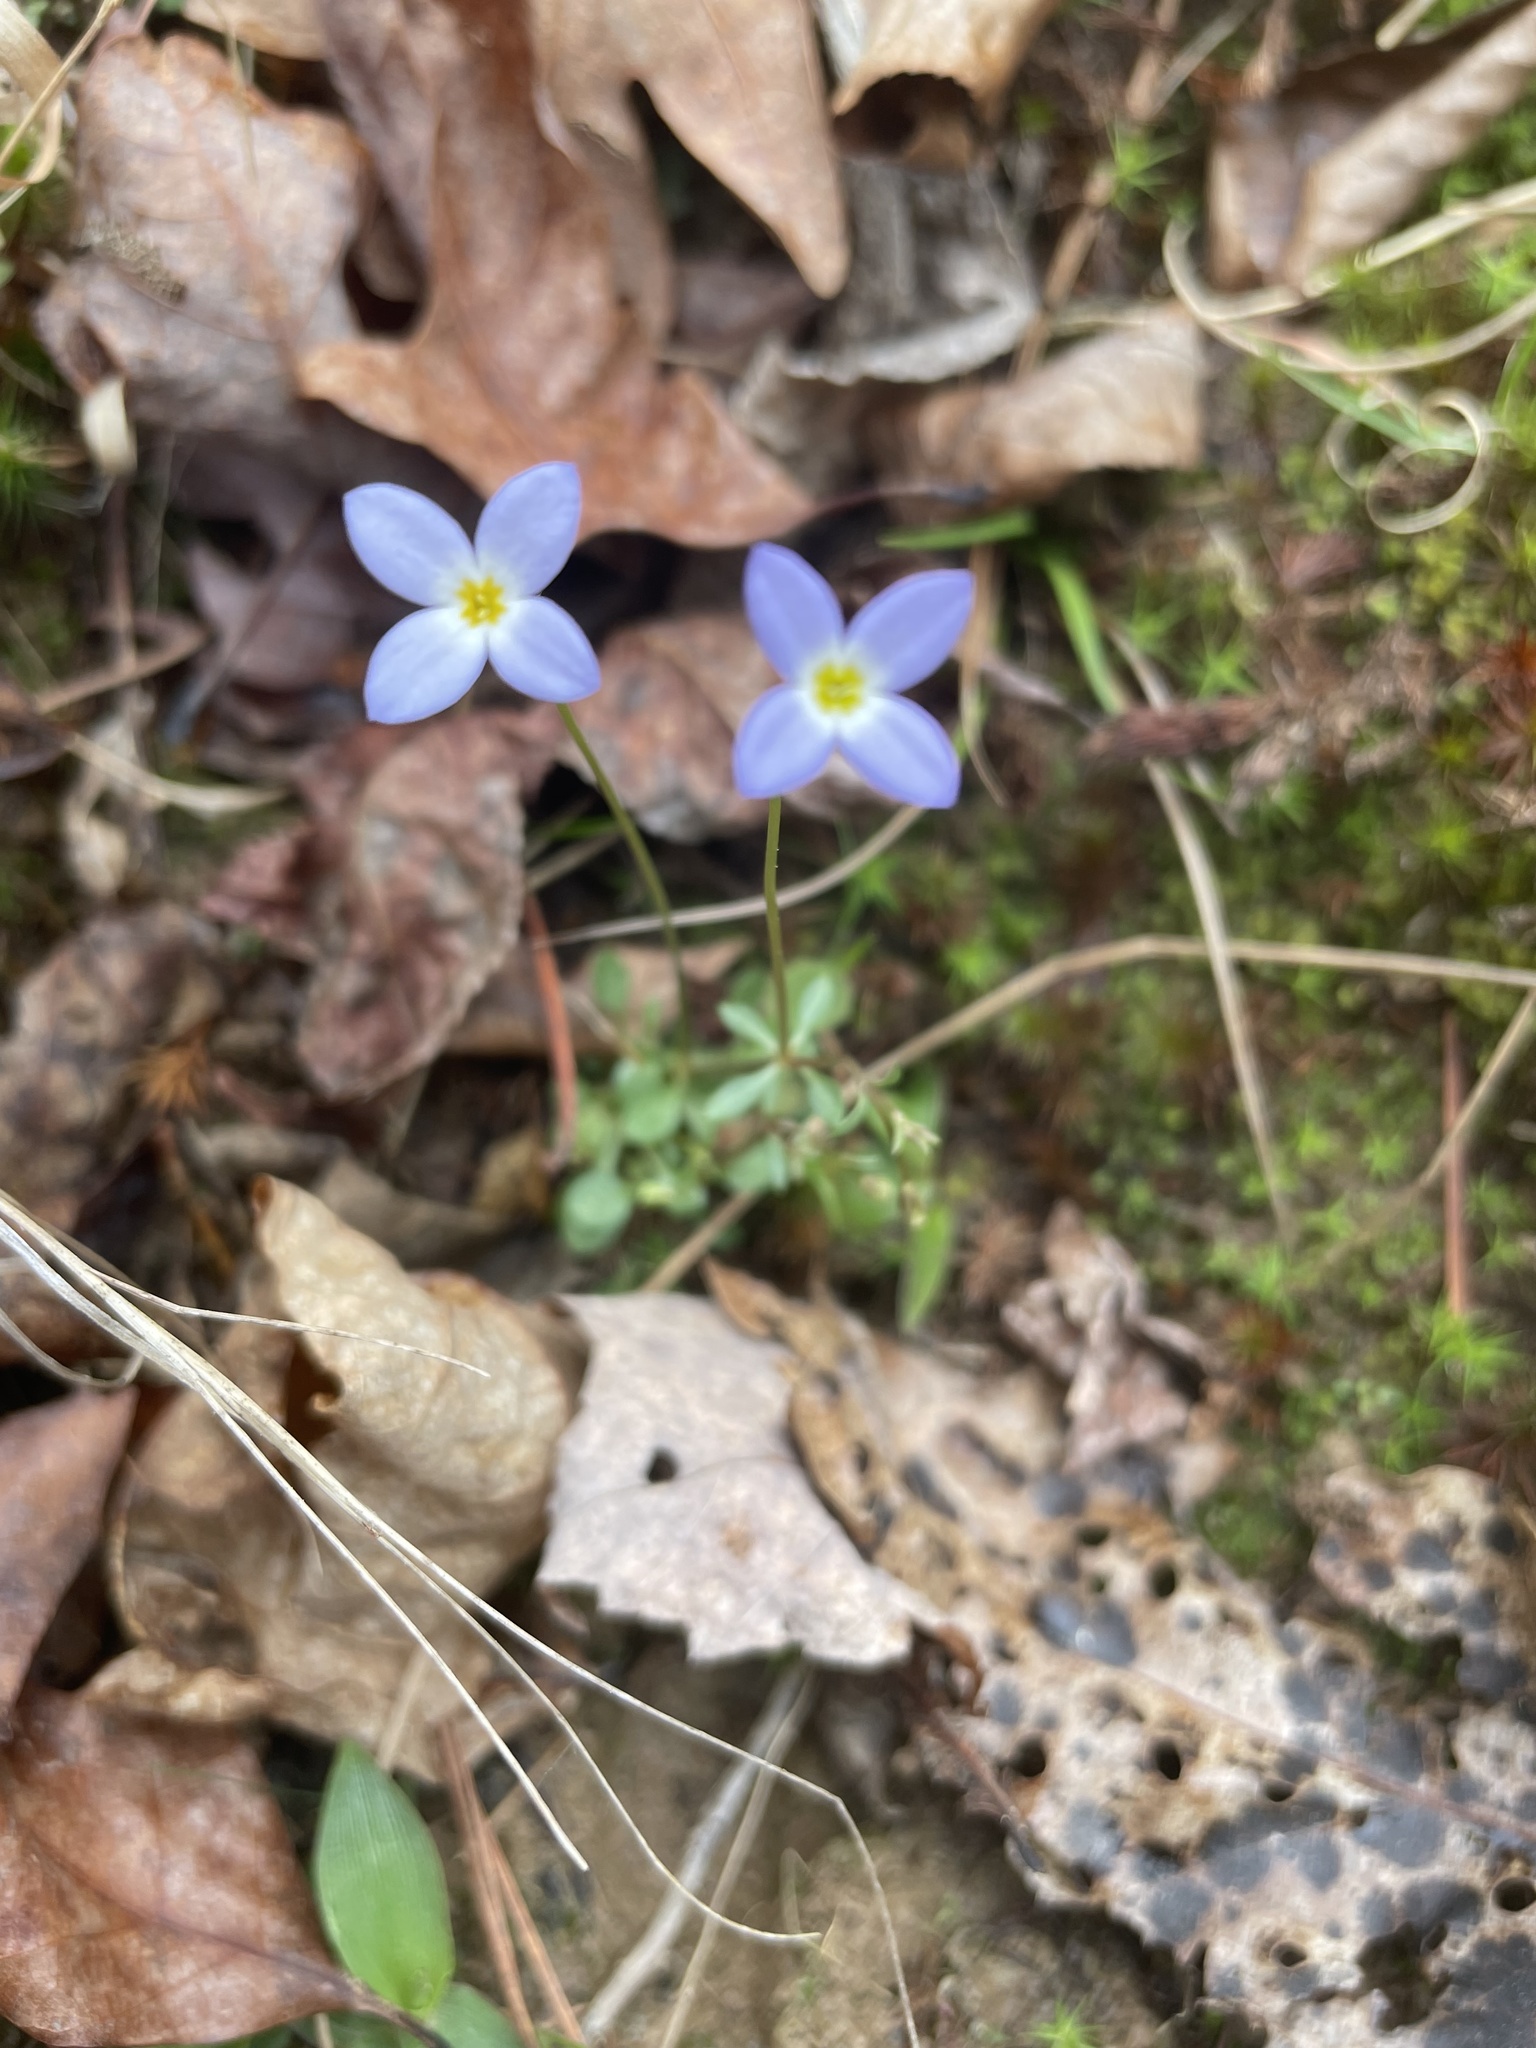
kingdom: Plantae
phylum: Tracheophyta
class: Magnoliopsida
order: Gentianales
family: Rubiaceae
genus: Houstonia
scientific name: Houstonia caerulea
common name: Bluets
